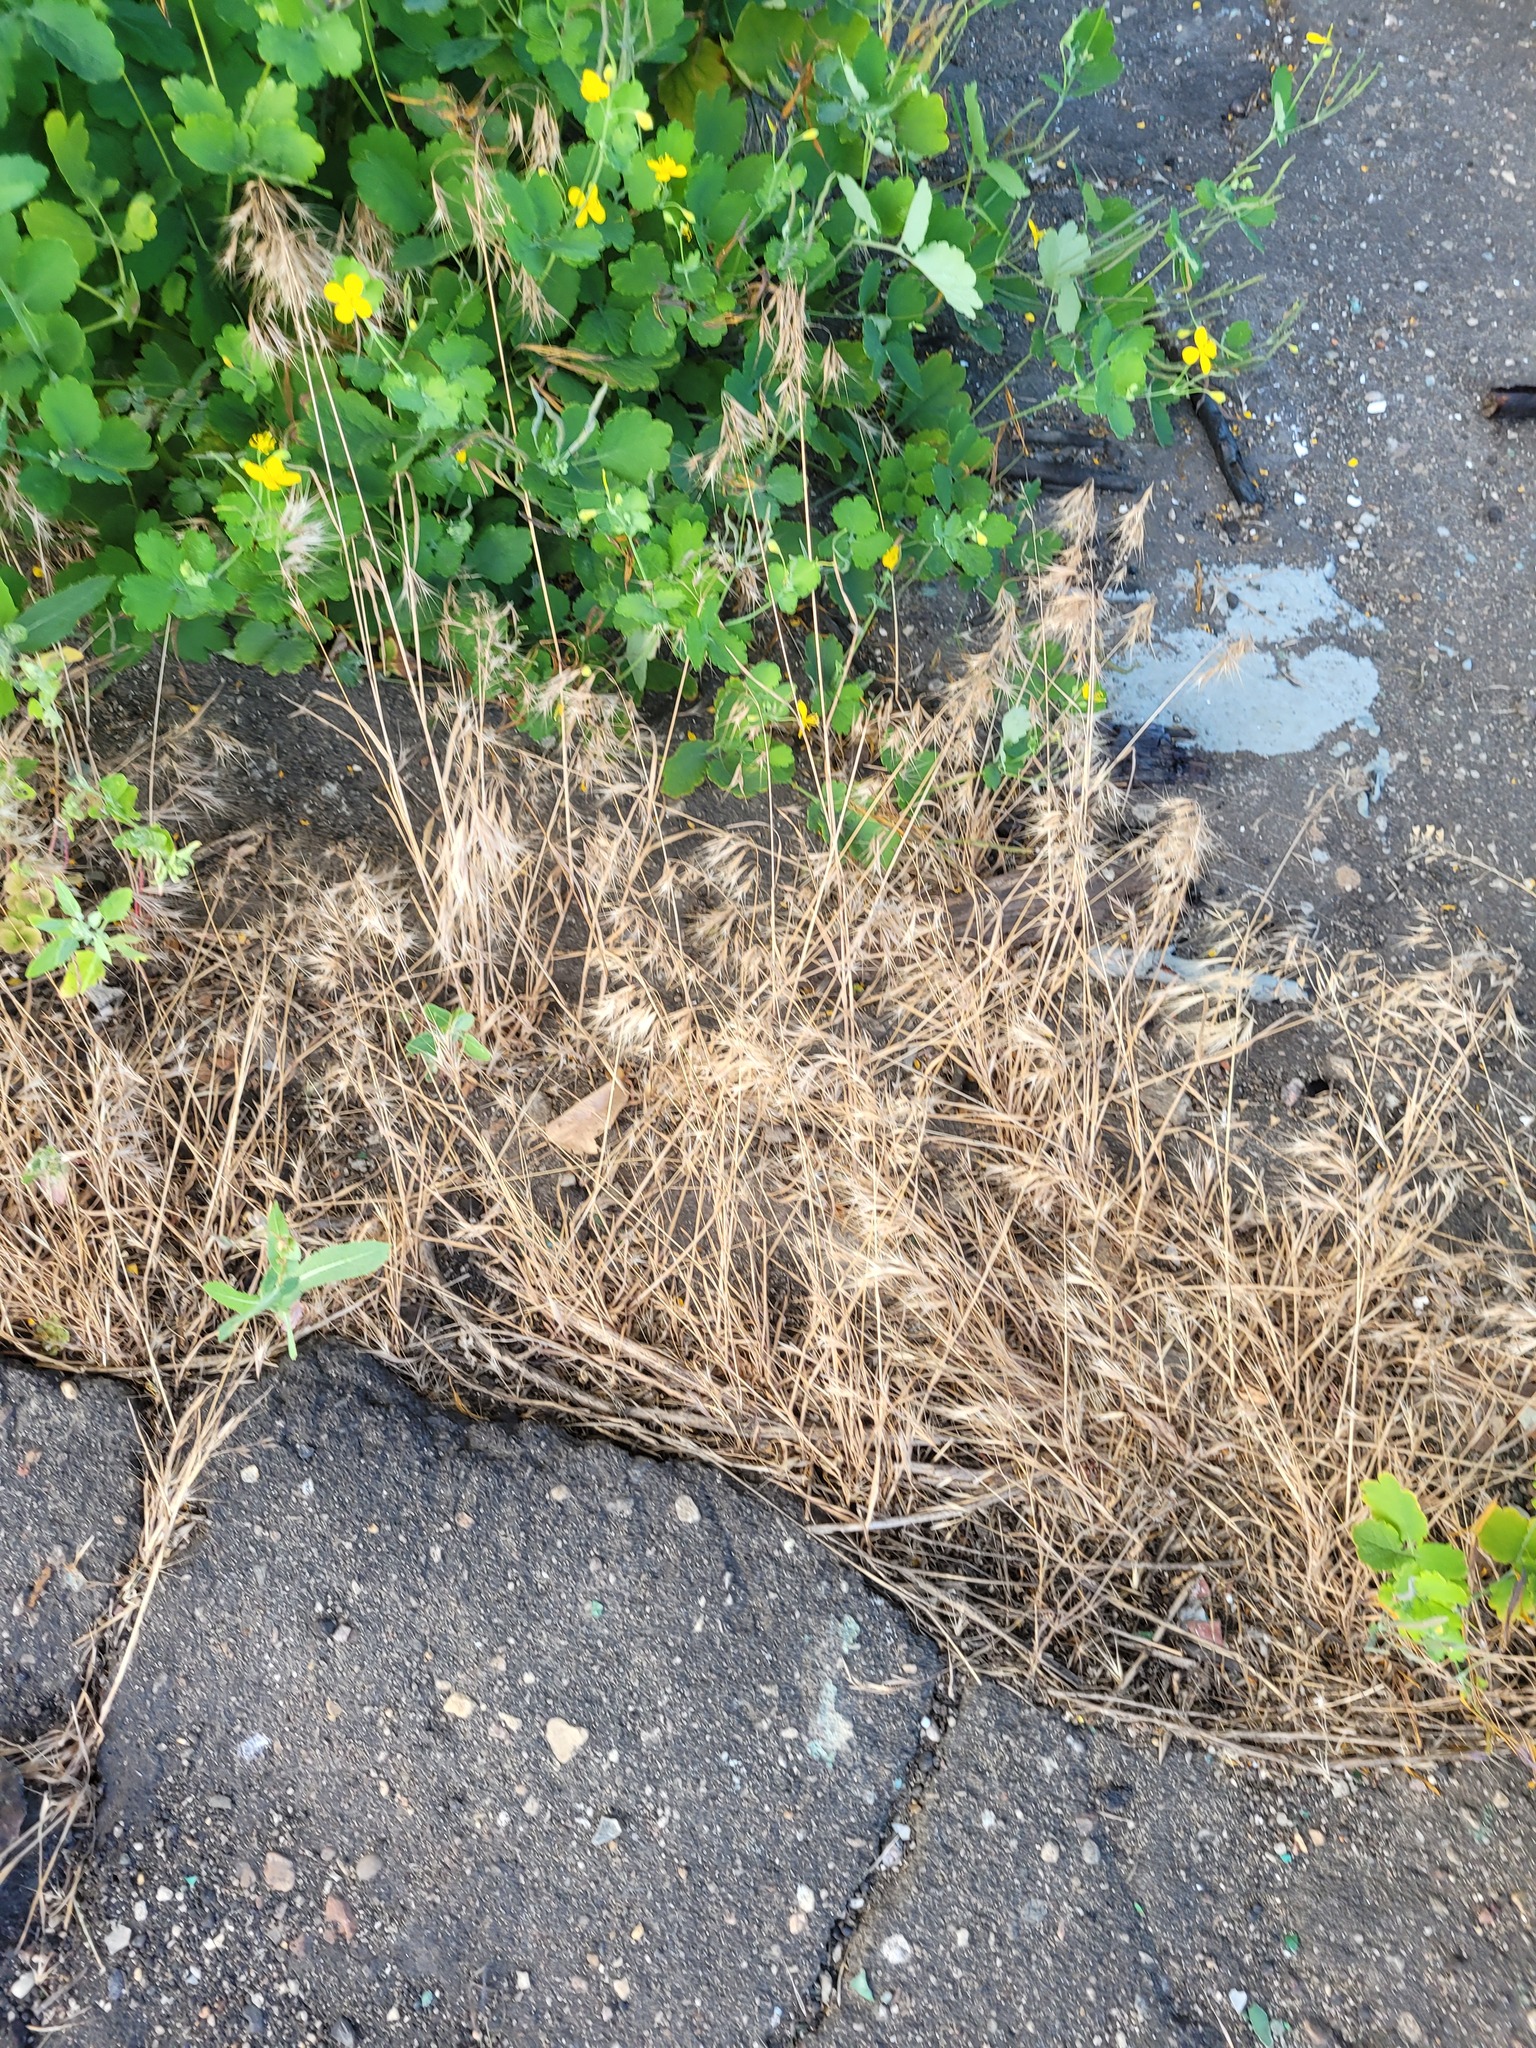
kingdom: Plantae
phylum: Tracheophyta
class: Liliopsida
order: Poales
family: Poaceae
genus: Bromus
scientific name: Bromus tectorum
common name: Cheatgrass
